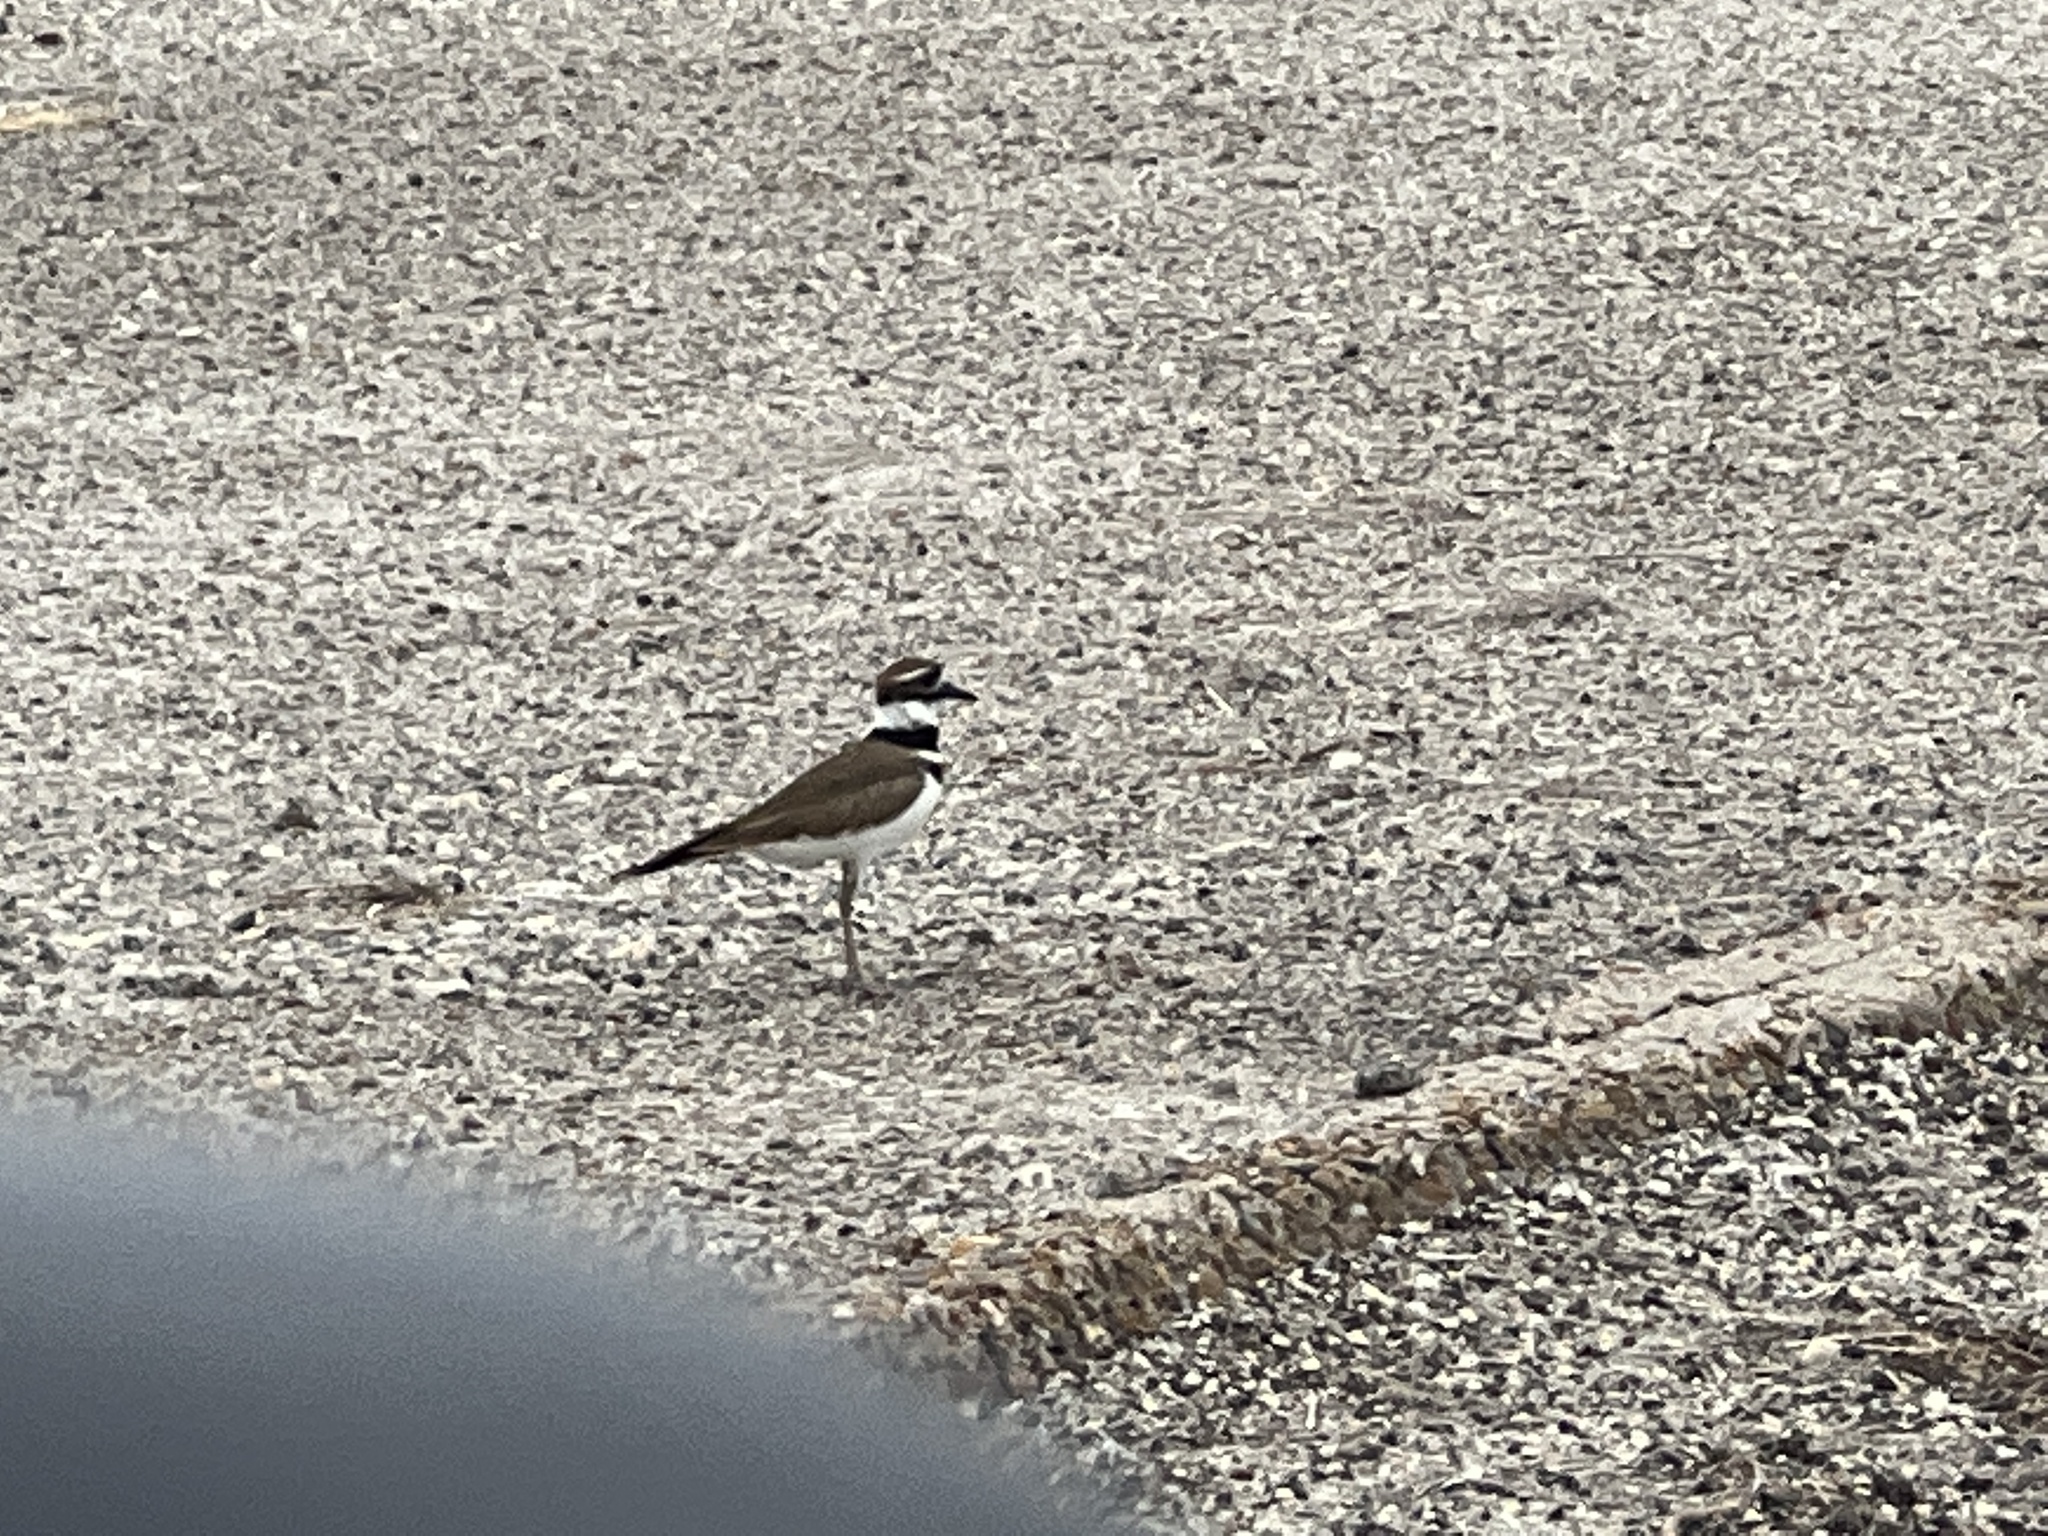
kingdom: Animalia
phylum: Chordata
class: Aves
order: Charadriiformes
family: Charadriidae
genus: Charadrius
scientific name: Charadrius vociferus
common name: Killdeer
